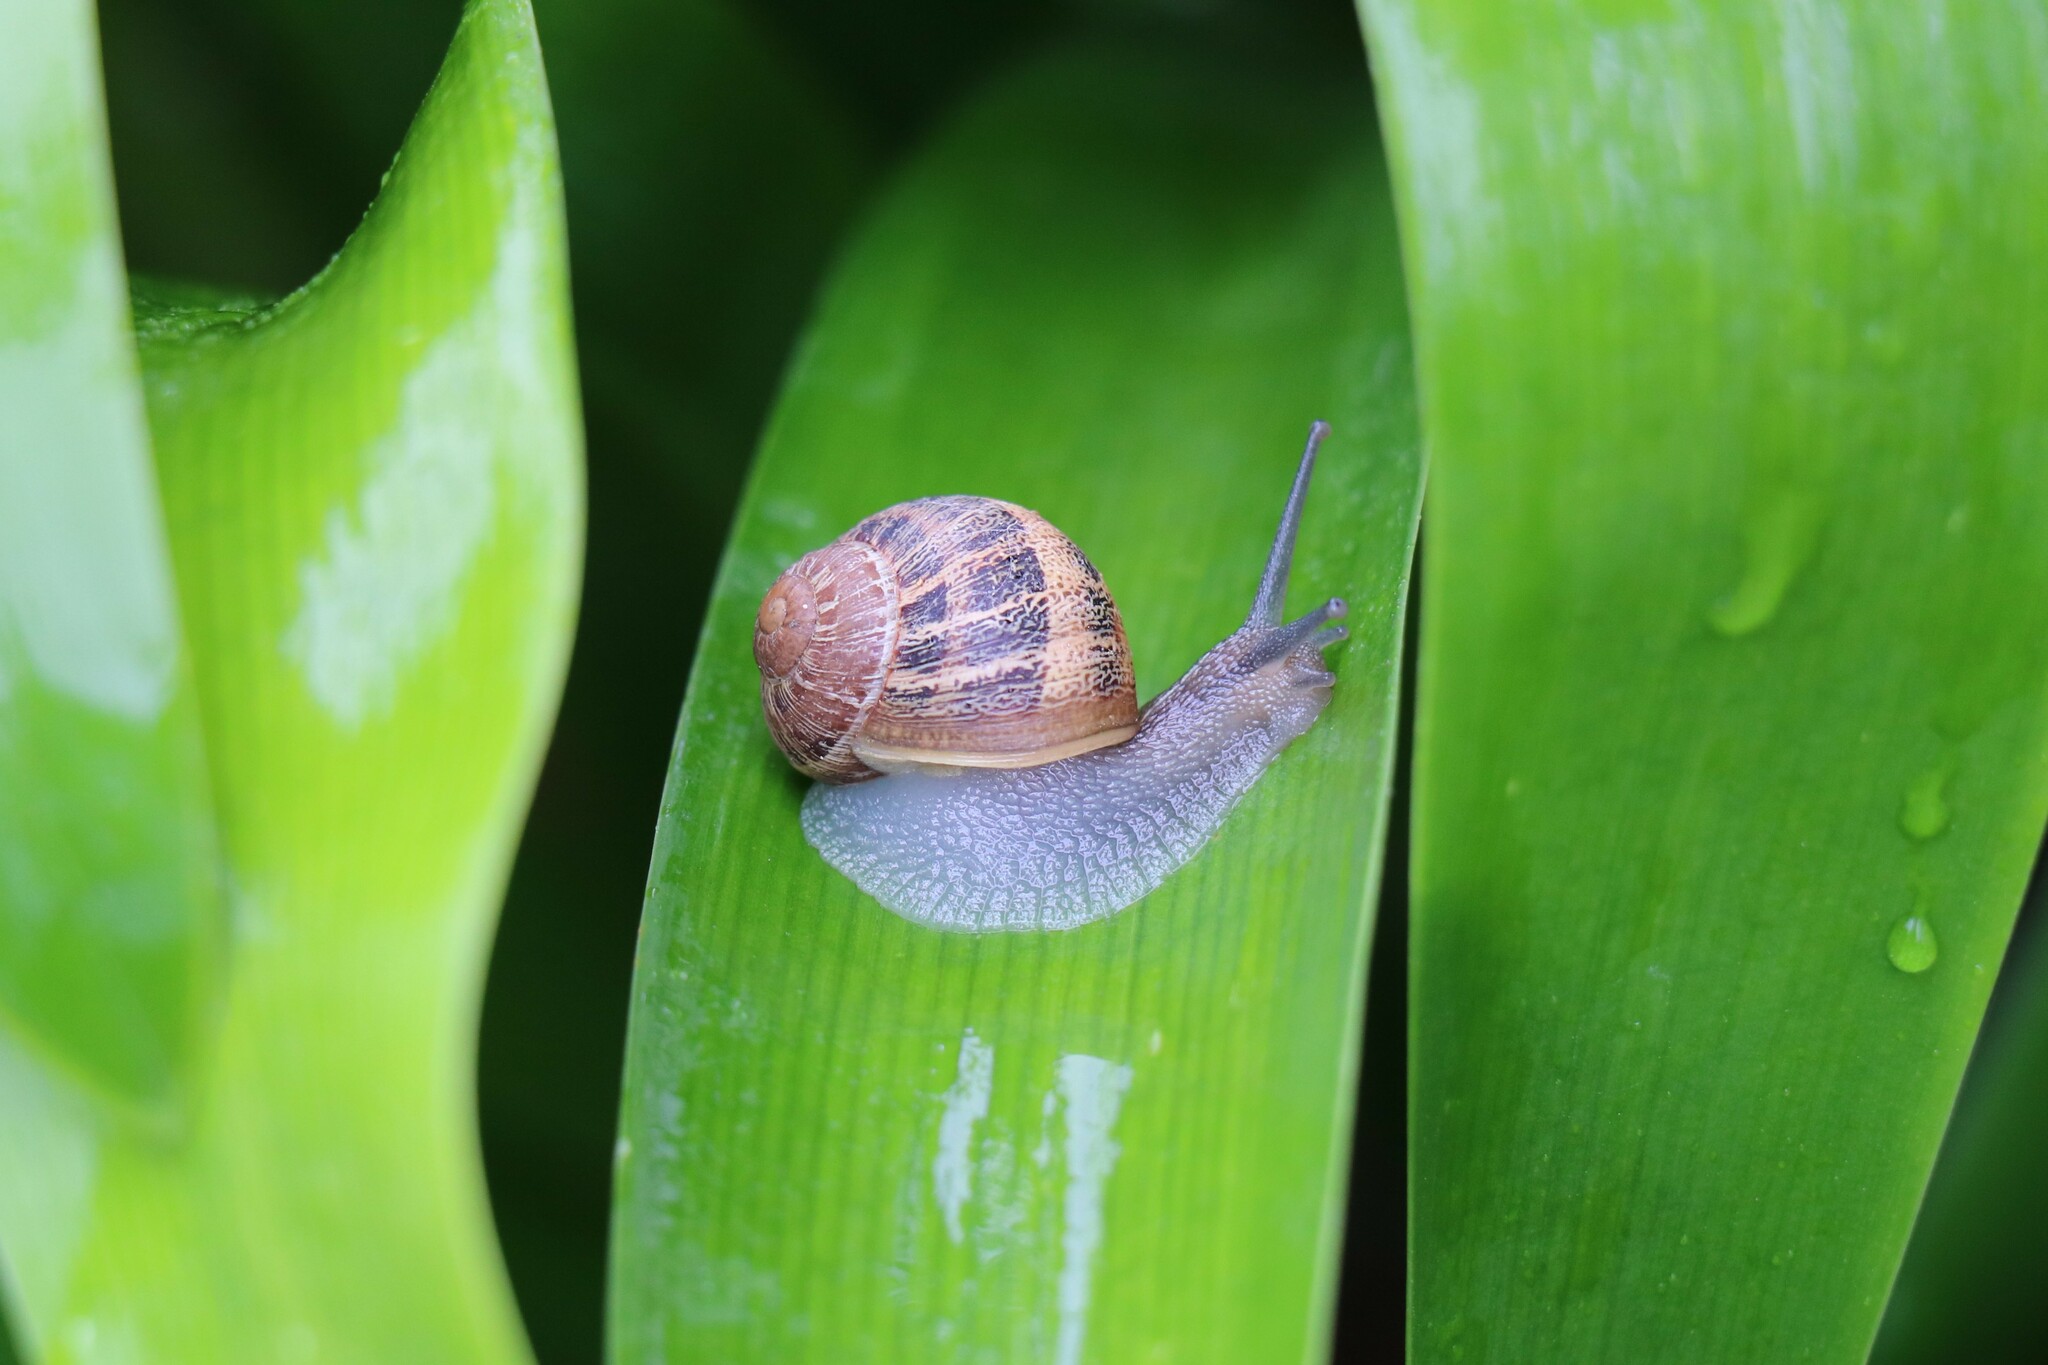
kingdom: Animalia
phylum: Mollusca
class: Gastropoda
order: Stylommatophora
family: Helicidae
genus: Cornu
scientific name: Cornu aspersum
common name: Brown garden snail
